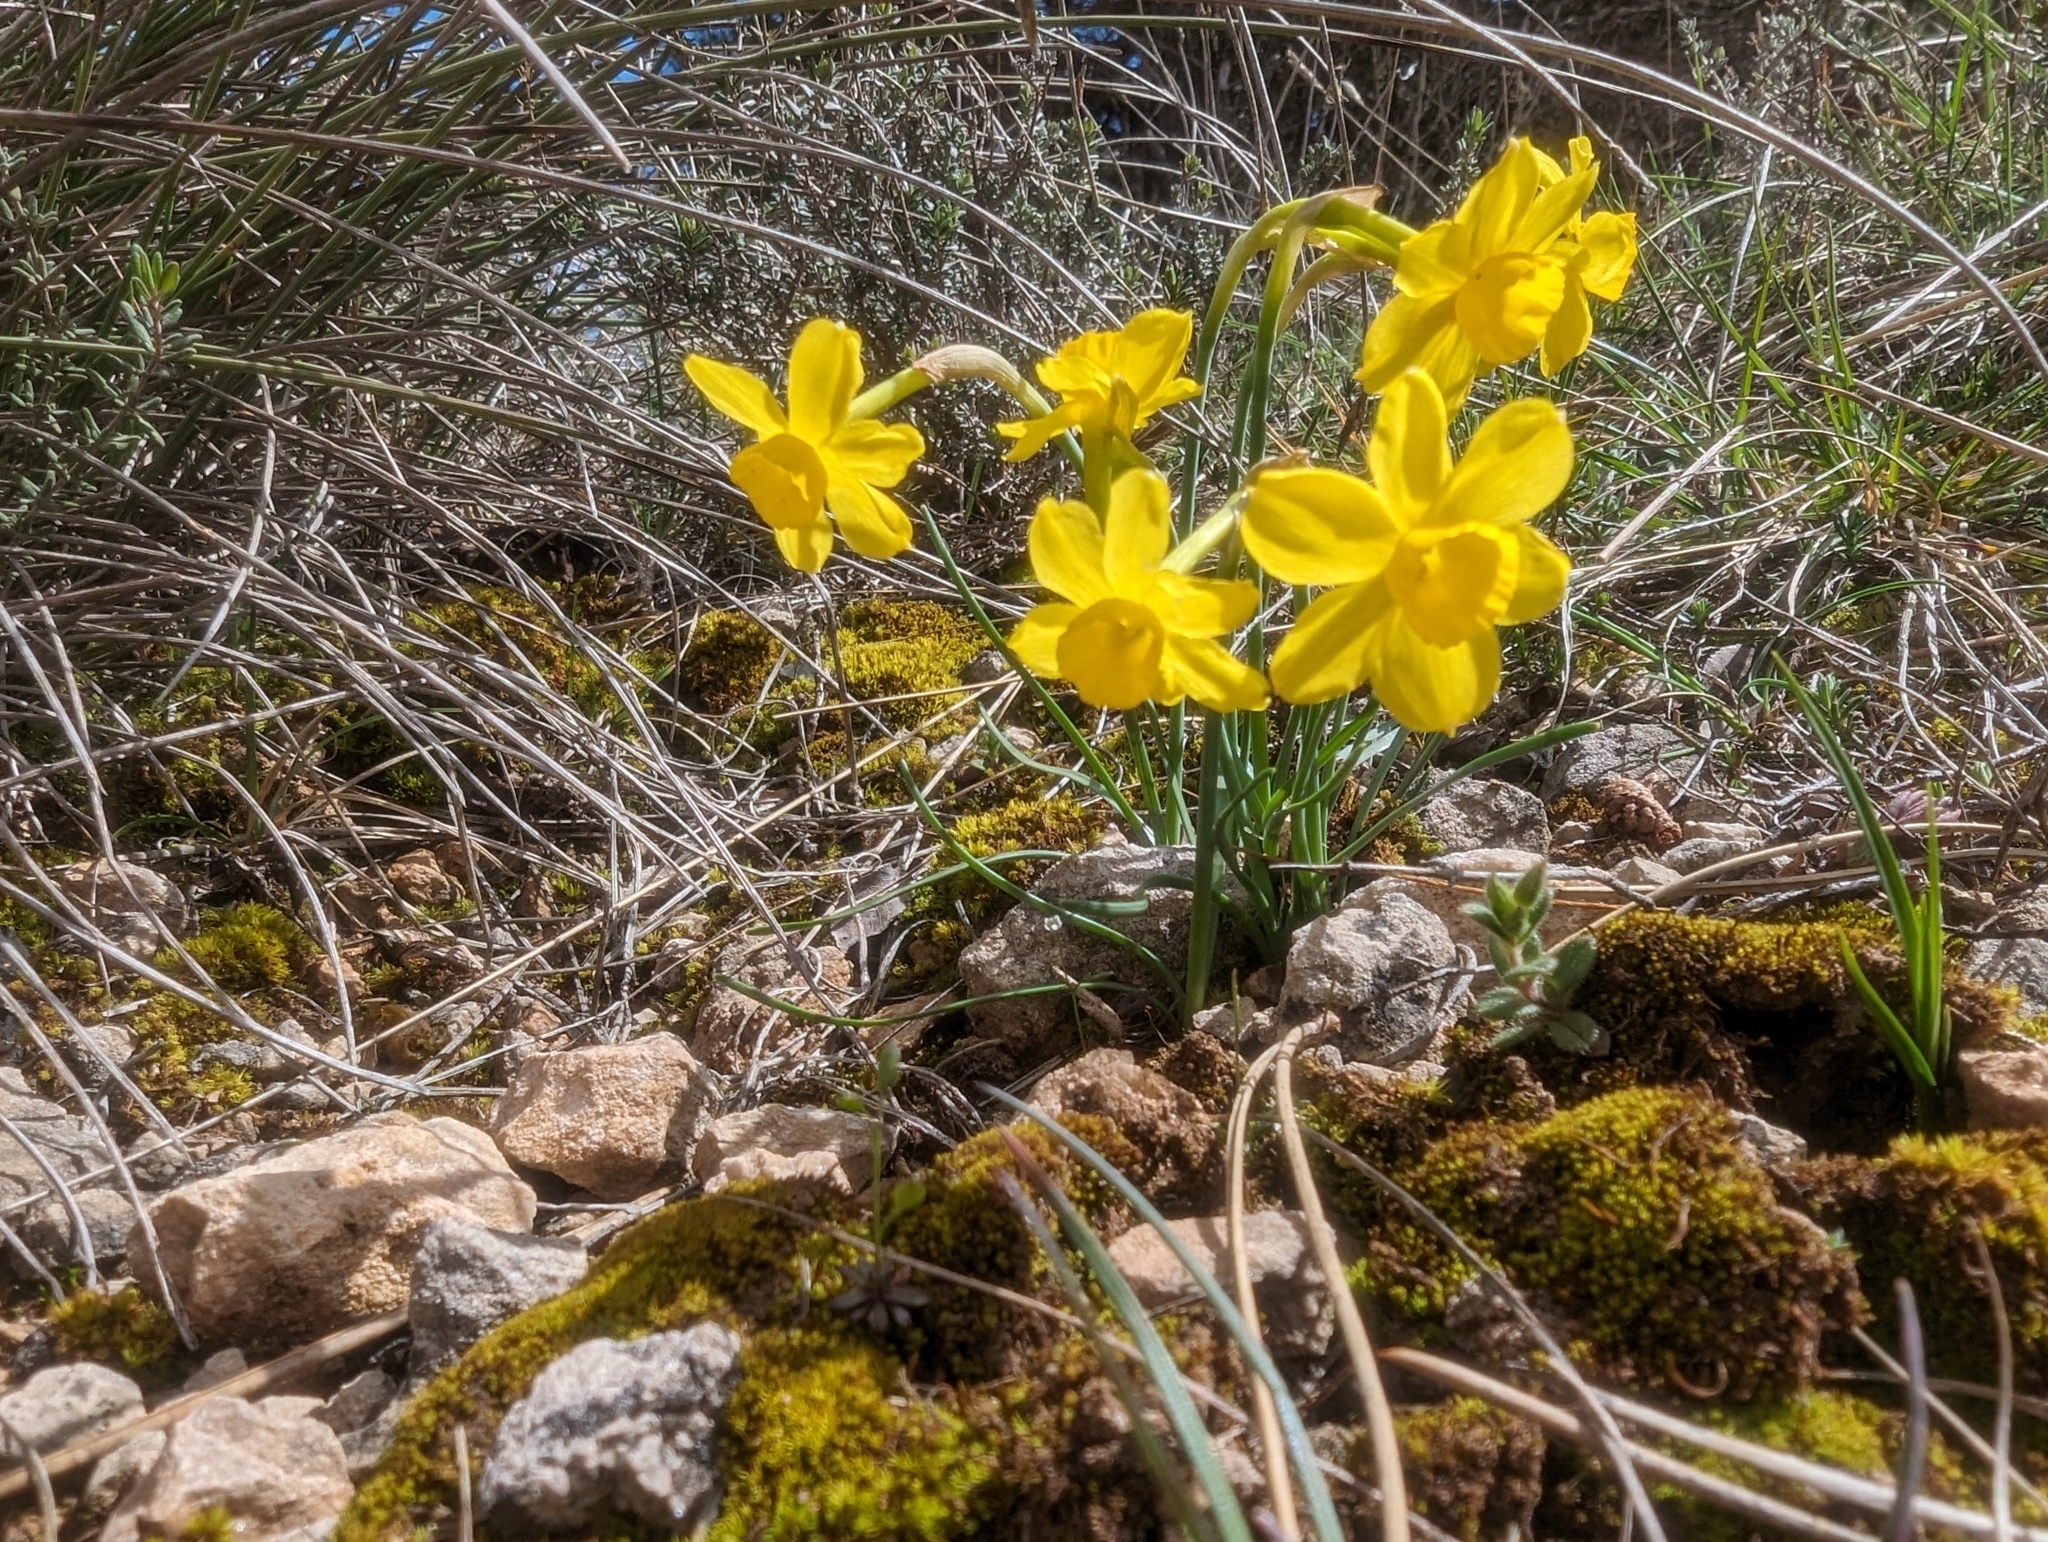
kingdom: Plantae
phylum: Tracheophyta
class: Liliopsida
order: Asparagales
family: Amaryllidaceae
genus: Narcissus
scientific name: Narcissus assoanus
